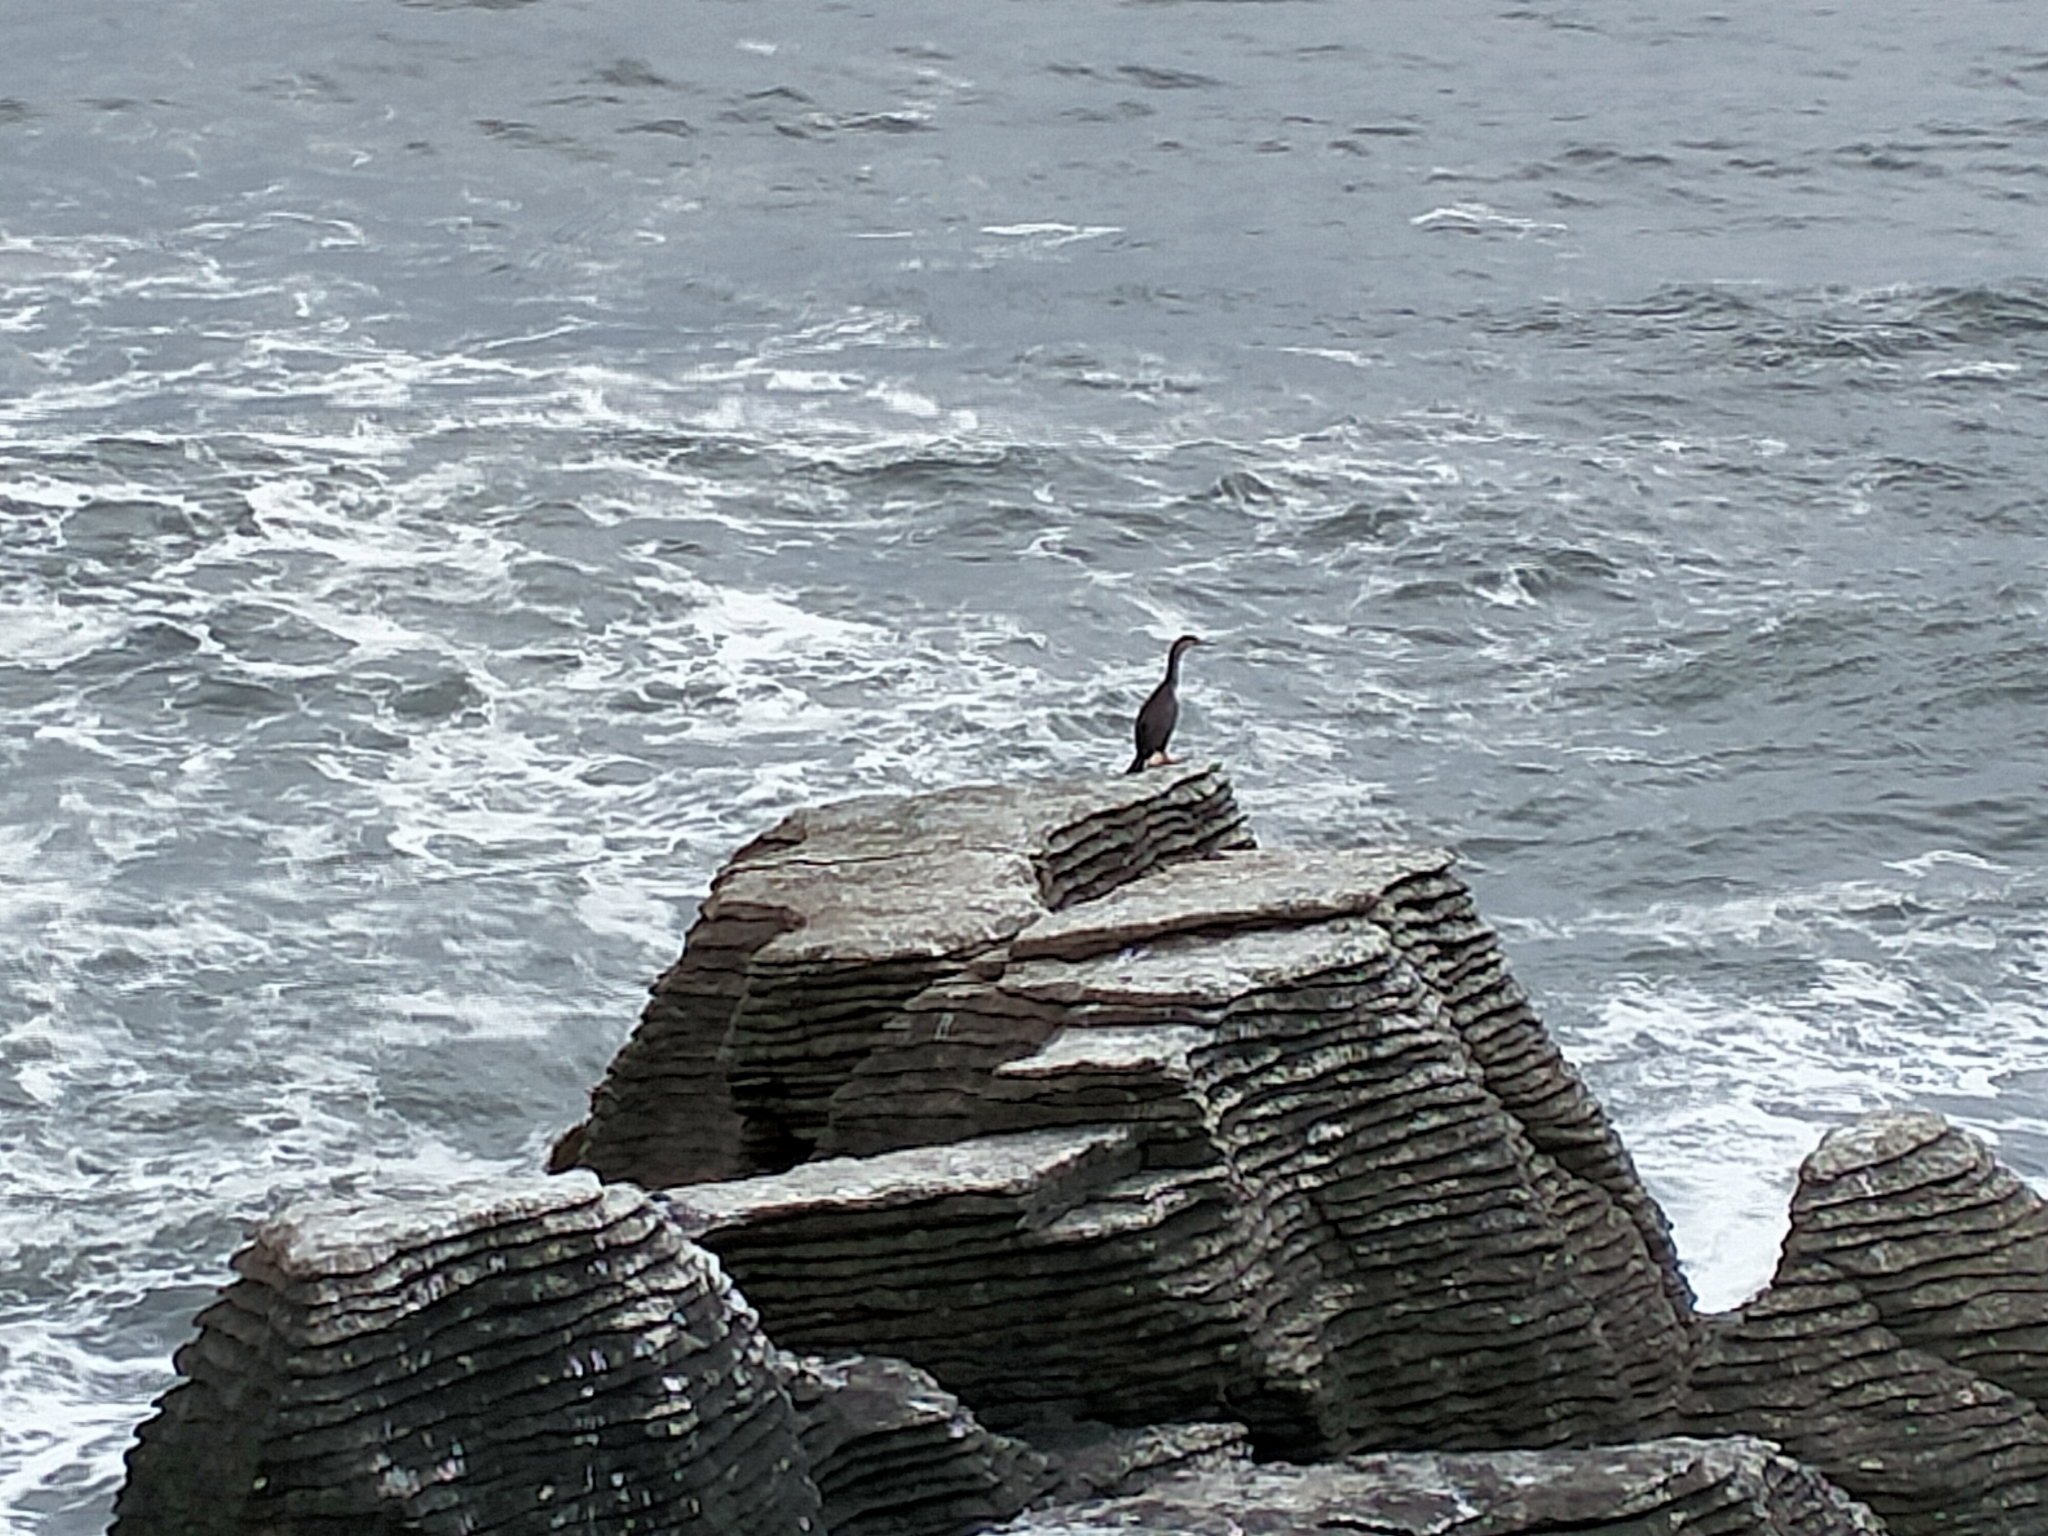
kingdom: Animalia
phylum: Chordata
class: Aves
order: Suliformes
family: Phalacrocoracidae
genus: Phalacrocorax
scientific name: Phalacrocorax punctatus
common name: Spotted shag
